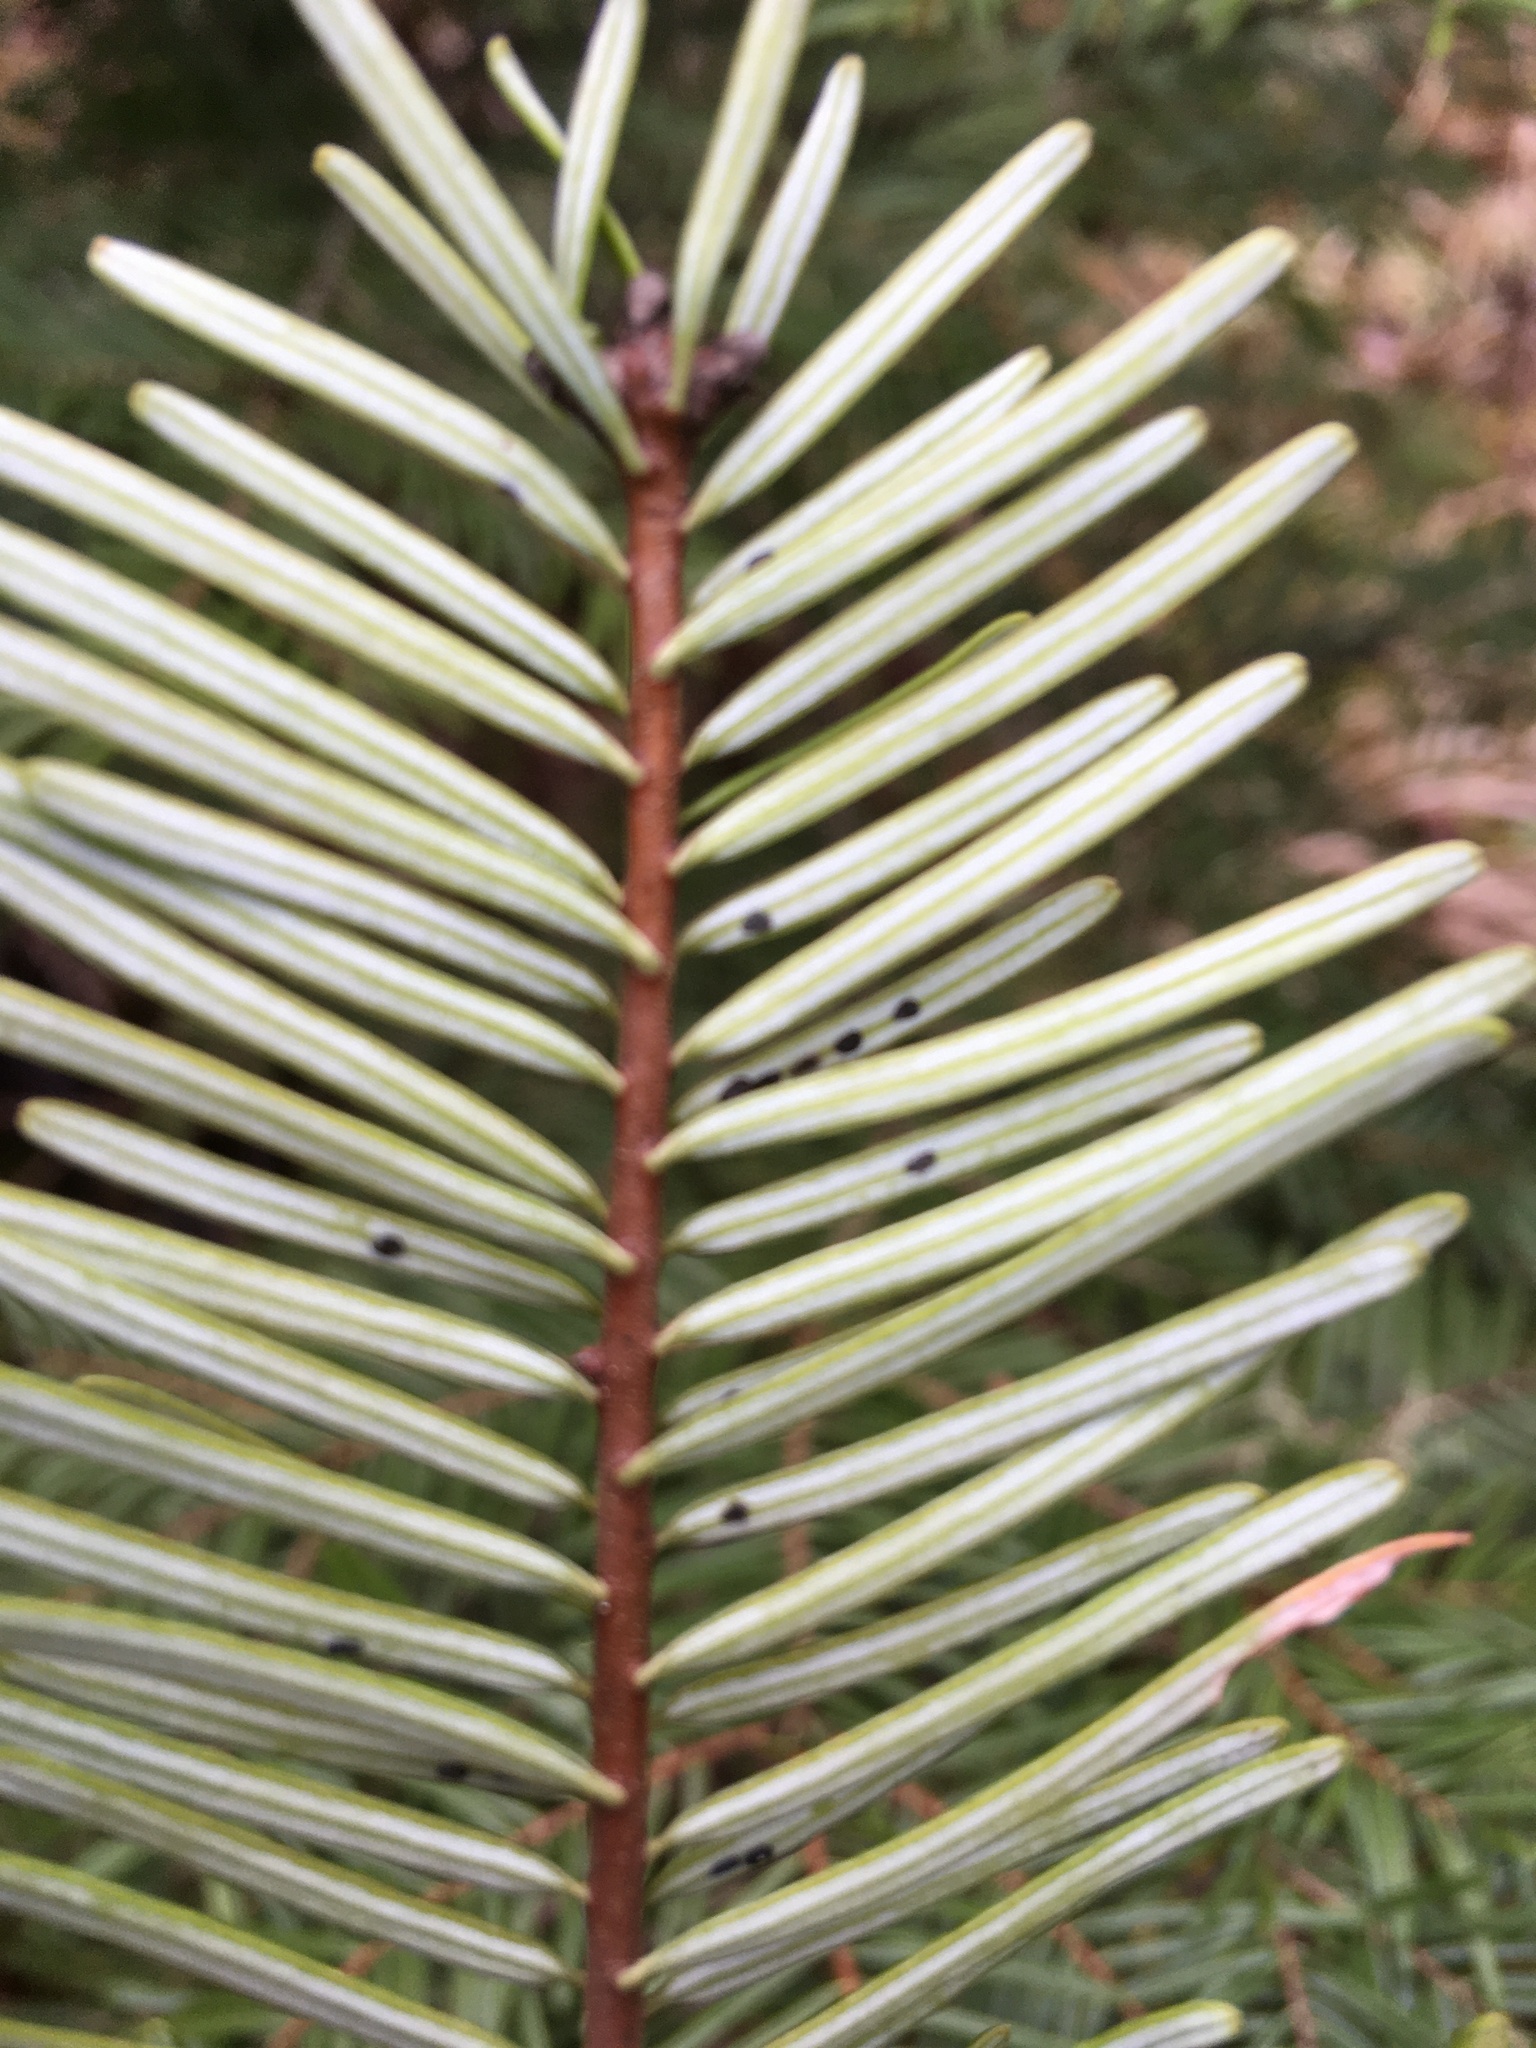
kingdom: Plantae
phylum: Tracheophyta
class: Pinopsida
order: Pinales
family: Pinaceae
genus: Abies
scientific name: Abies grandis
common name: Giant fir
